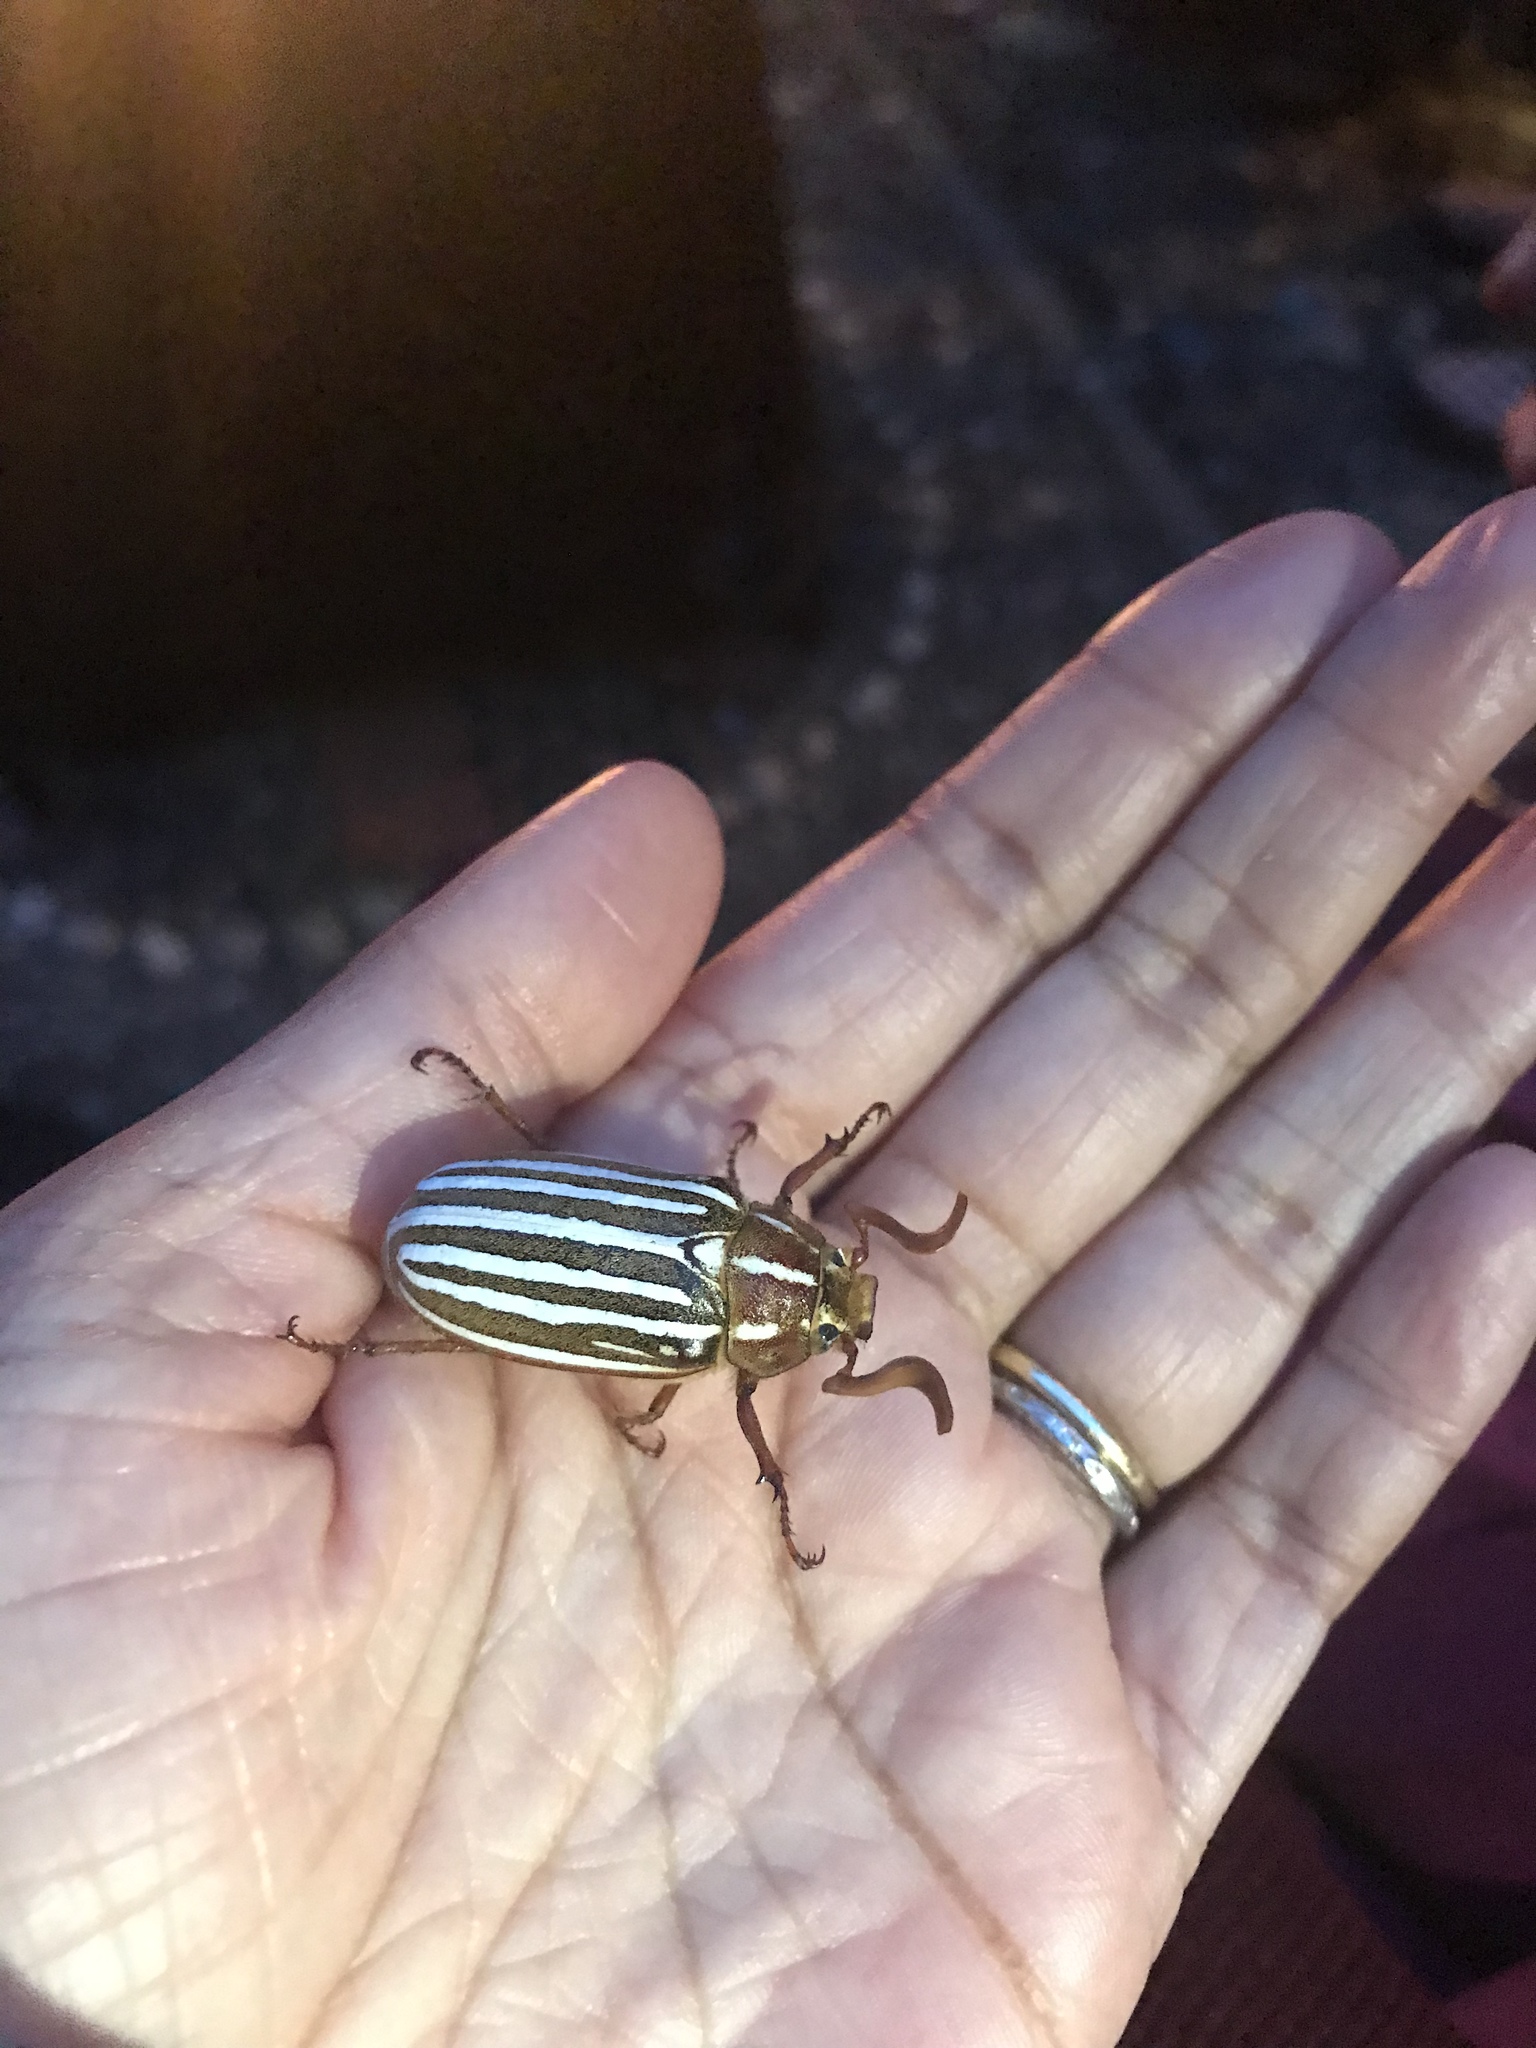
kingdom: Animalia
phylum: Arthropoda
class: Insecta
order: Coleoptera
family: Scarabaeidae
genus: Polyphylla
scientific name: Polyphylla decemlineata
